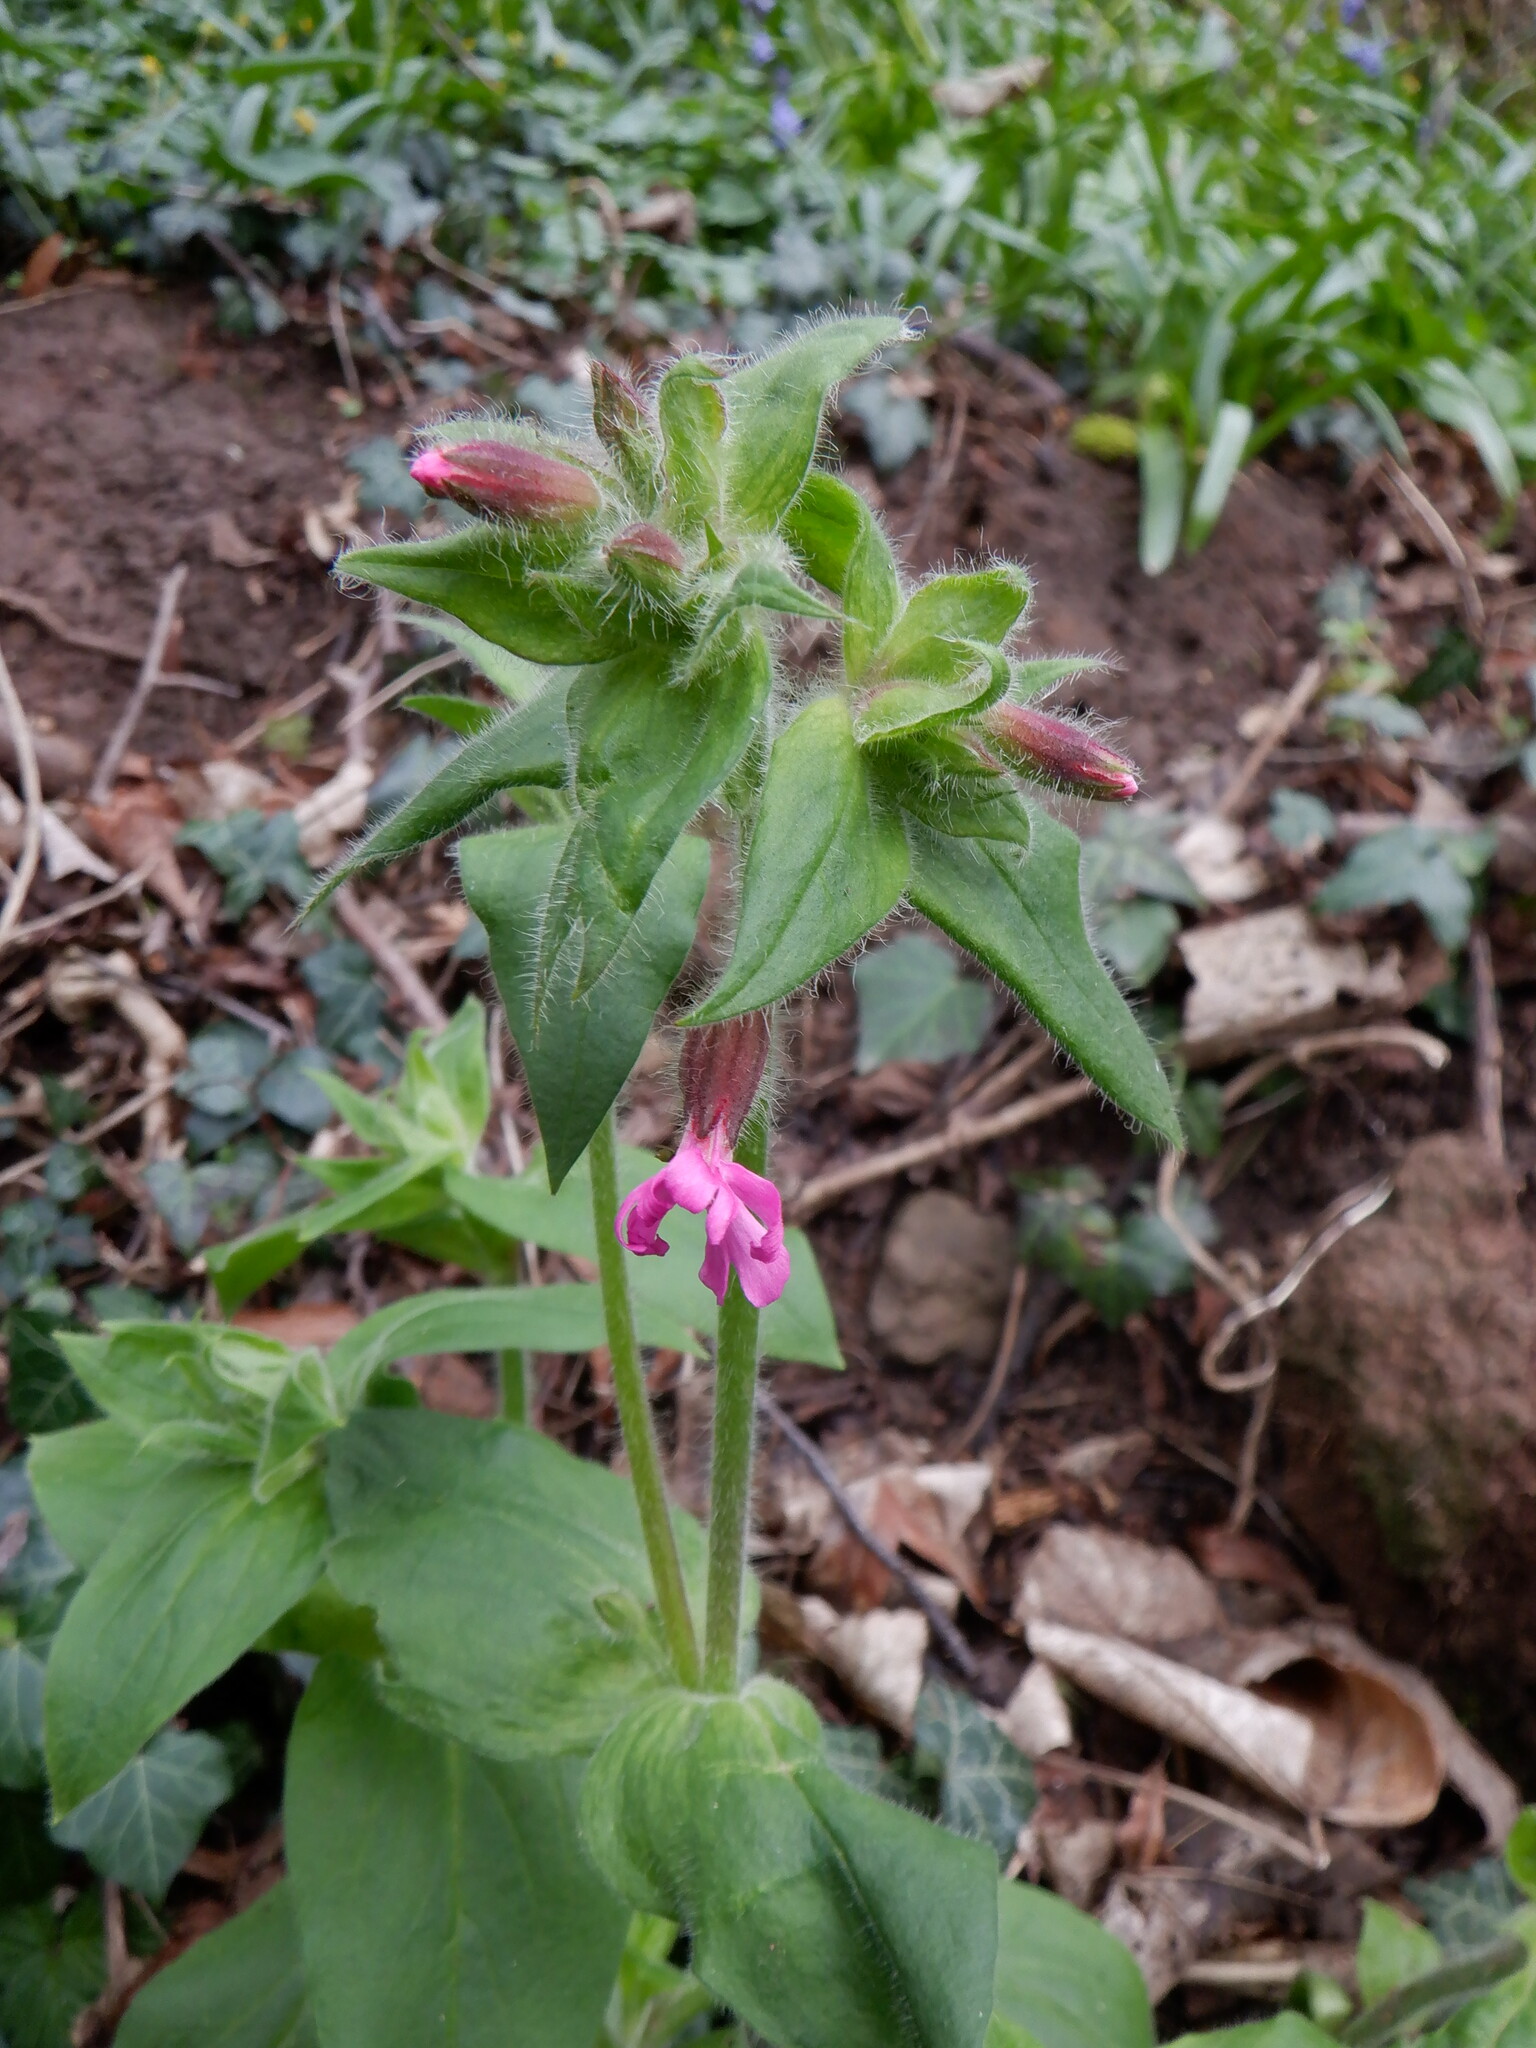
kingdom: Plantae
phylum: Tracheophyta
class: Magnoliopsida
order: Caryophyllales
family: Caryophyllaceae
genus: Silene
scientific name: Silene dioica
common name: Red campion
